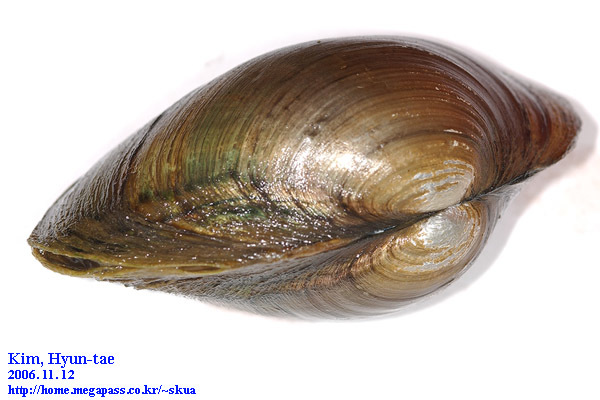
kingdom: Animalia
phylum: Mollusca
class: Bivalvia
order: Unionida
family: Unionidae
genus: Buldowskia
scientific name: Buldowskia shadini
